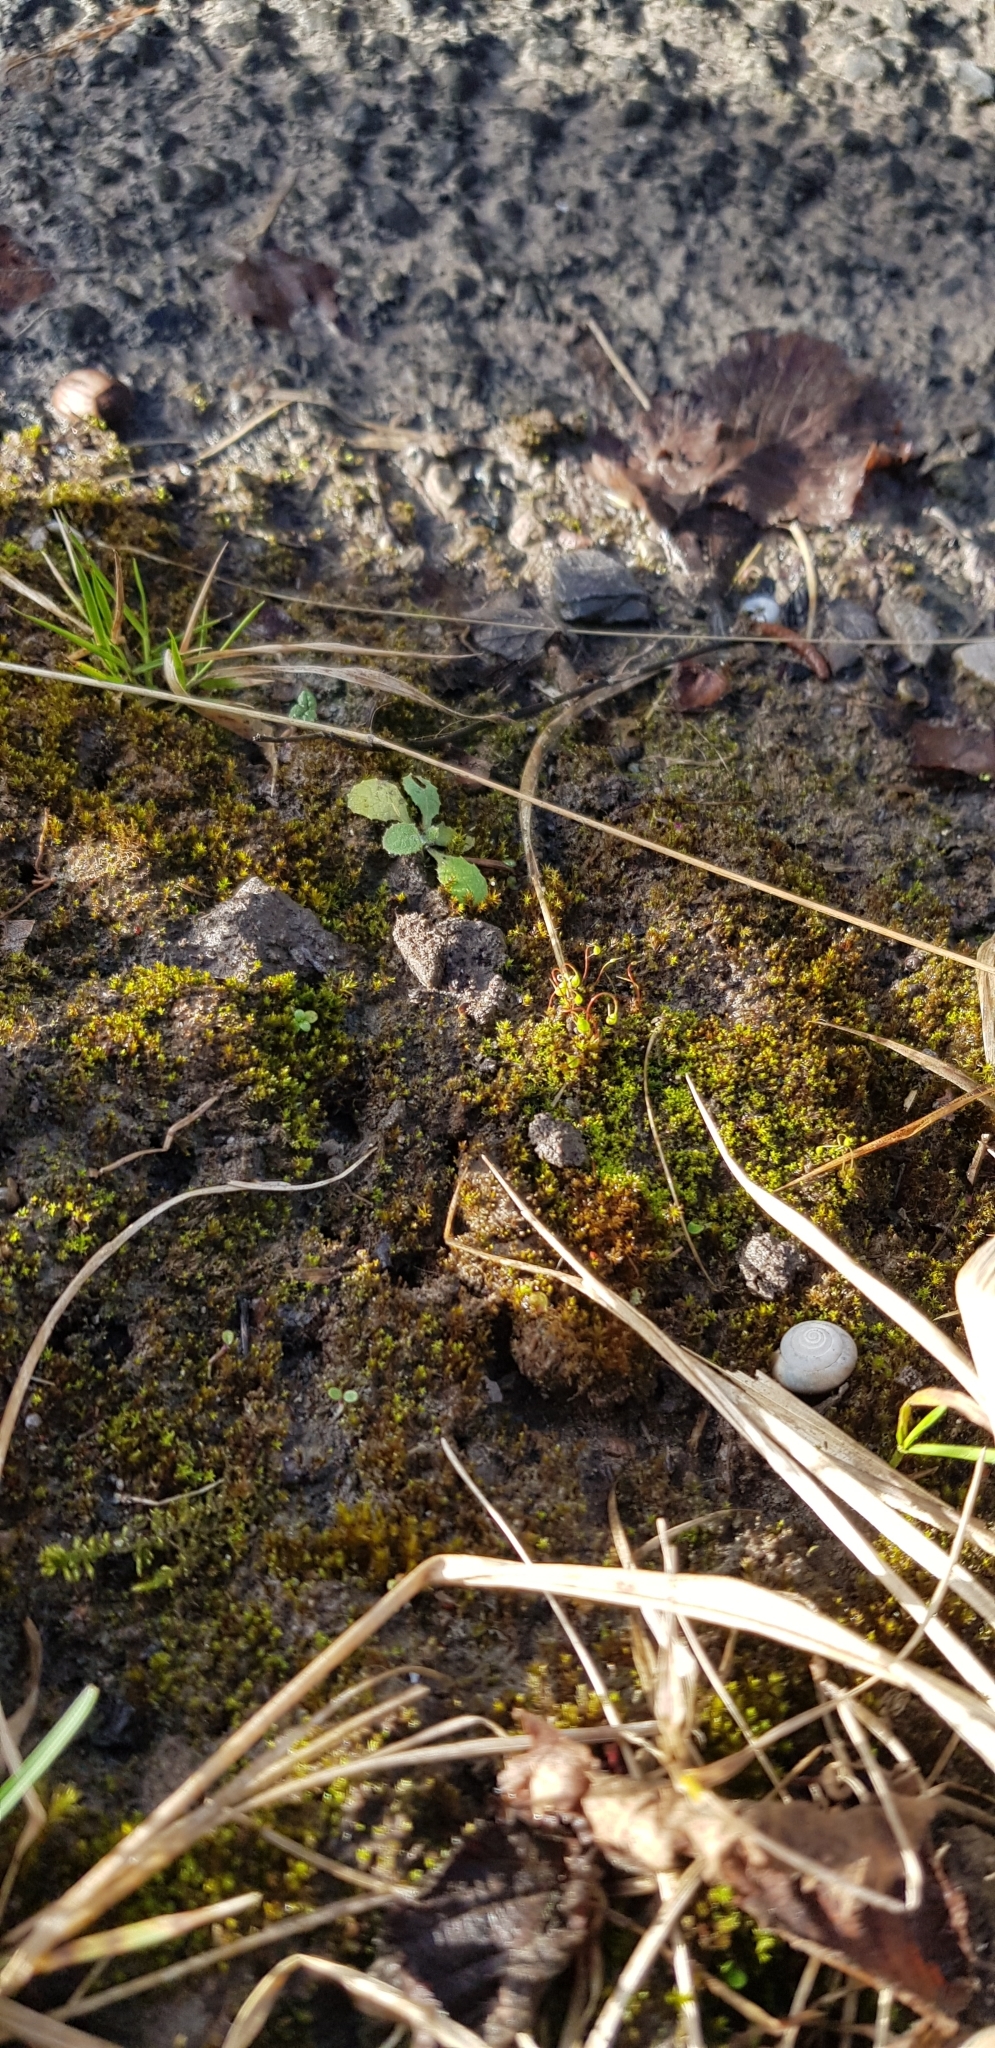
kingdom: Plantae
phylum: Bryophyta
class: Bryopsida
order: Funariales
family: Funariaceae
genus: Funaria
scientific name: Funaria hygrometrica
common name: Common cord moss
